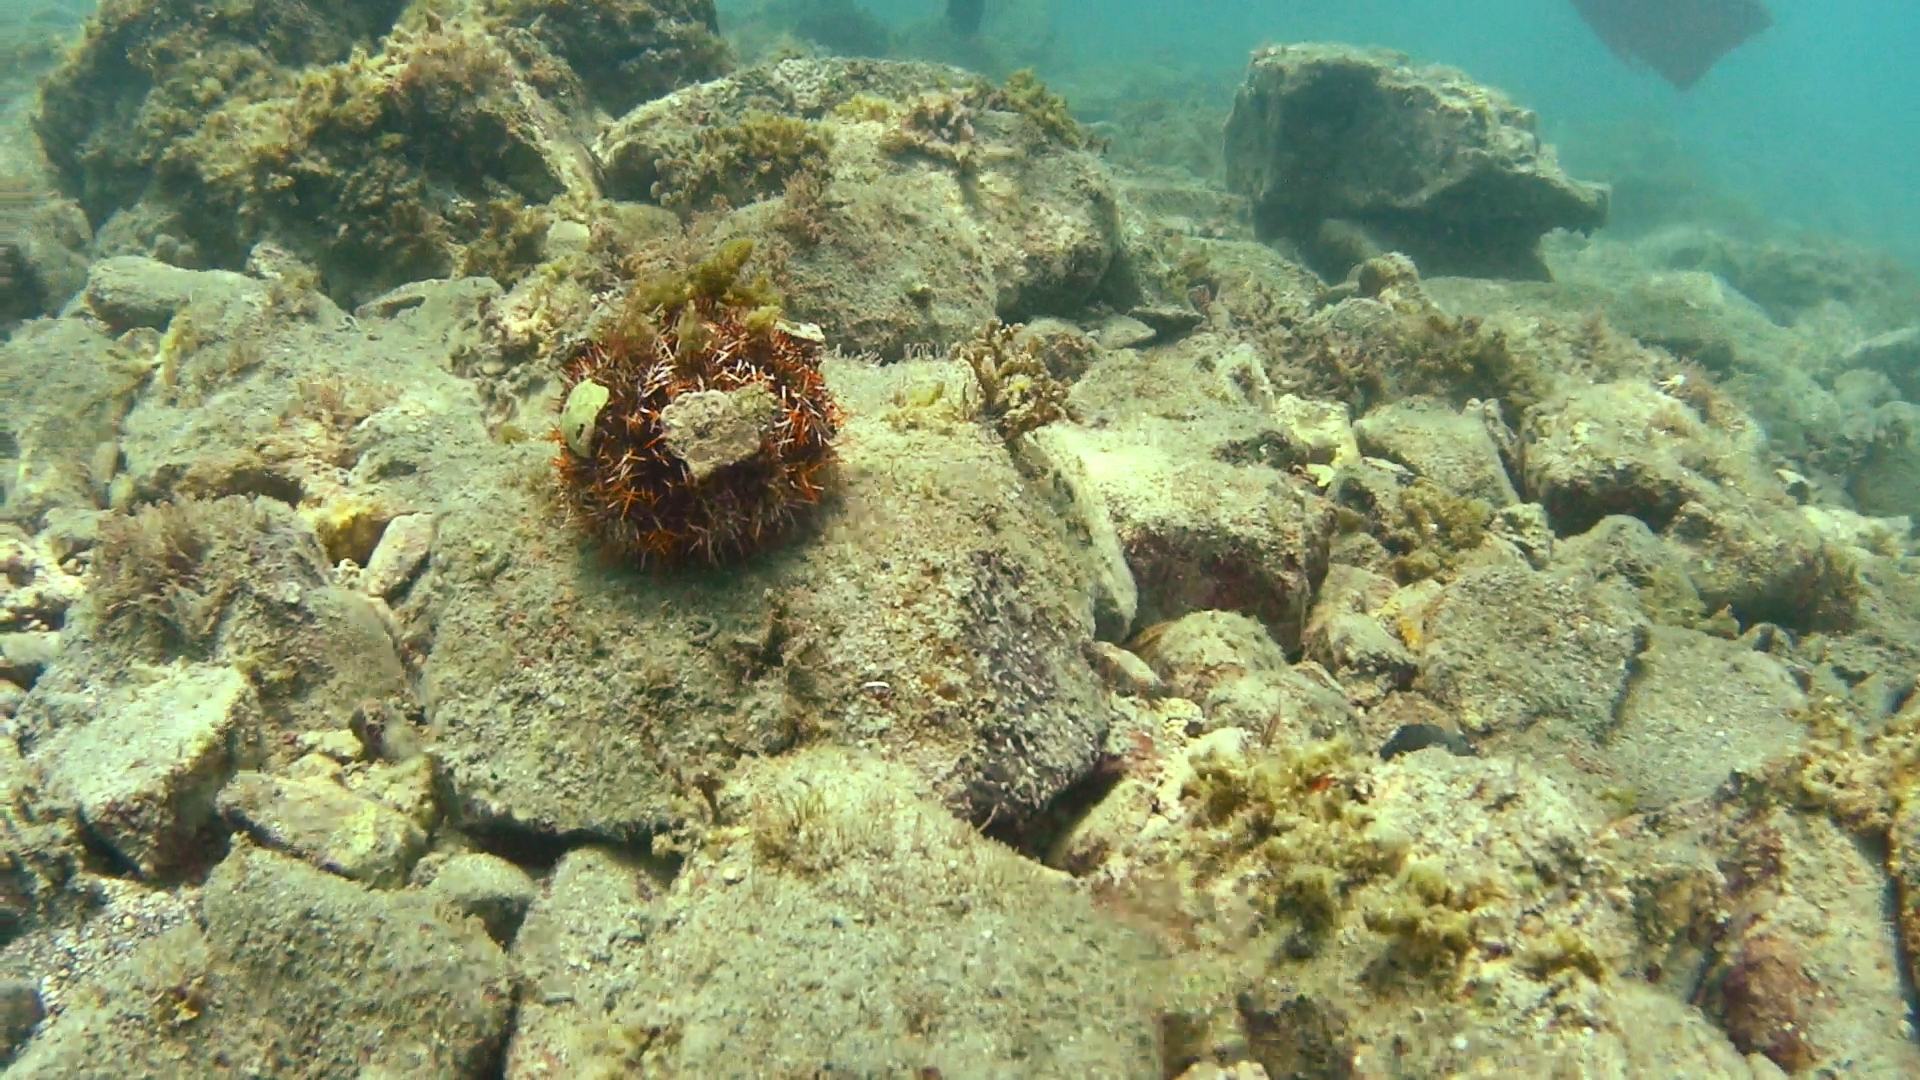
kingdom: Animalia
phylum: Echinodermata
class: Echinoidea
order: Camarodonta
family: Toxopneustidae
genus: Tripneustes
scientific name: Tripneustes gratilla
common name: Bischofsmützenseeigel
